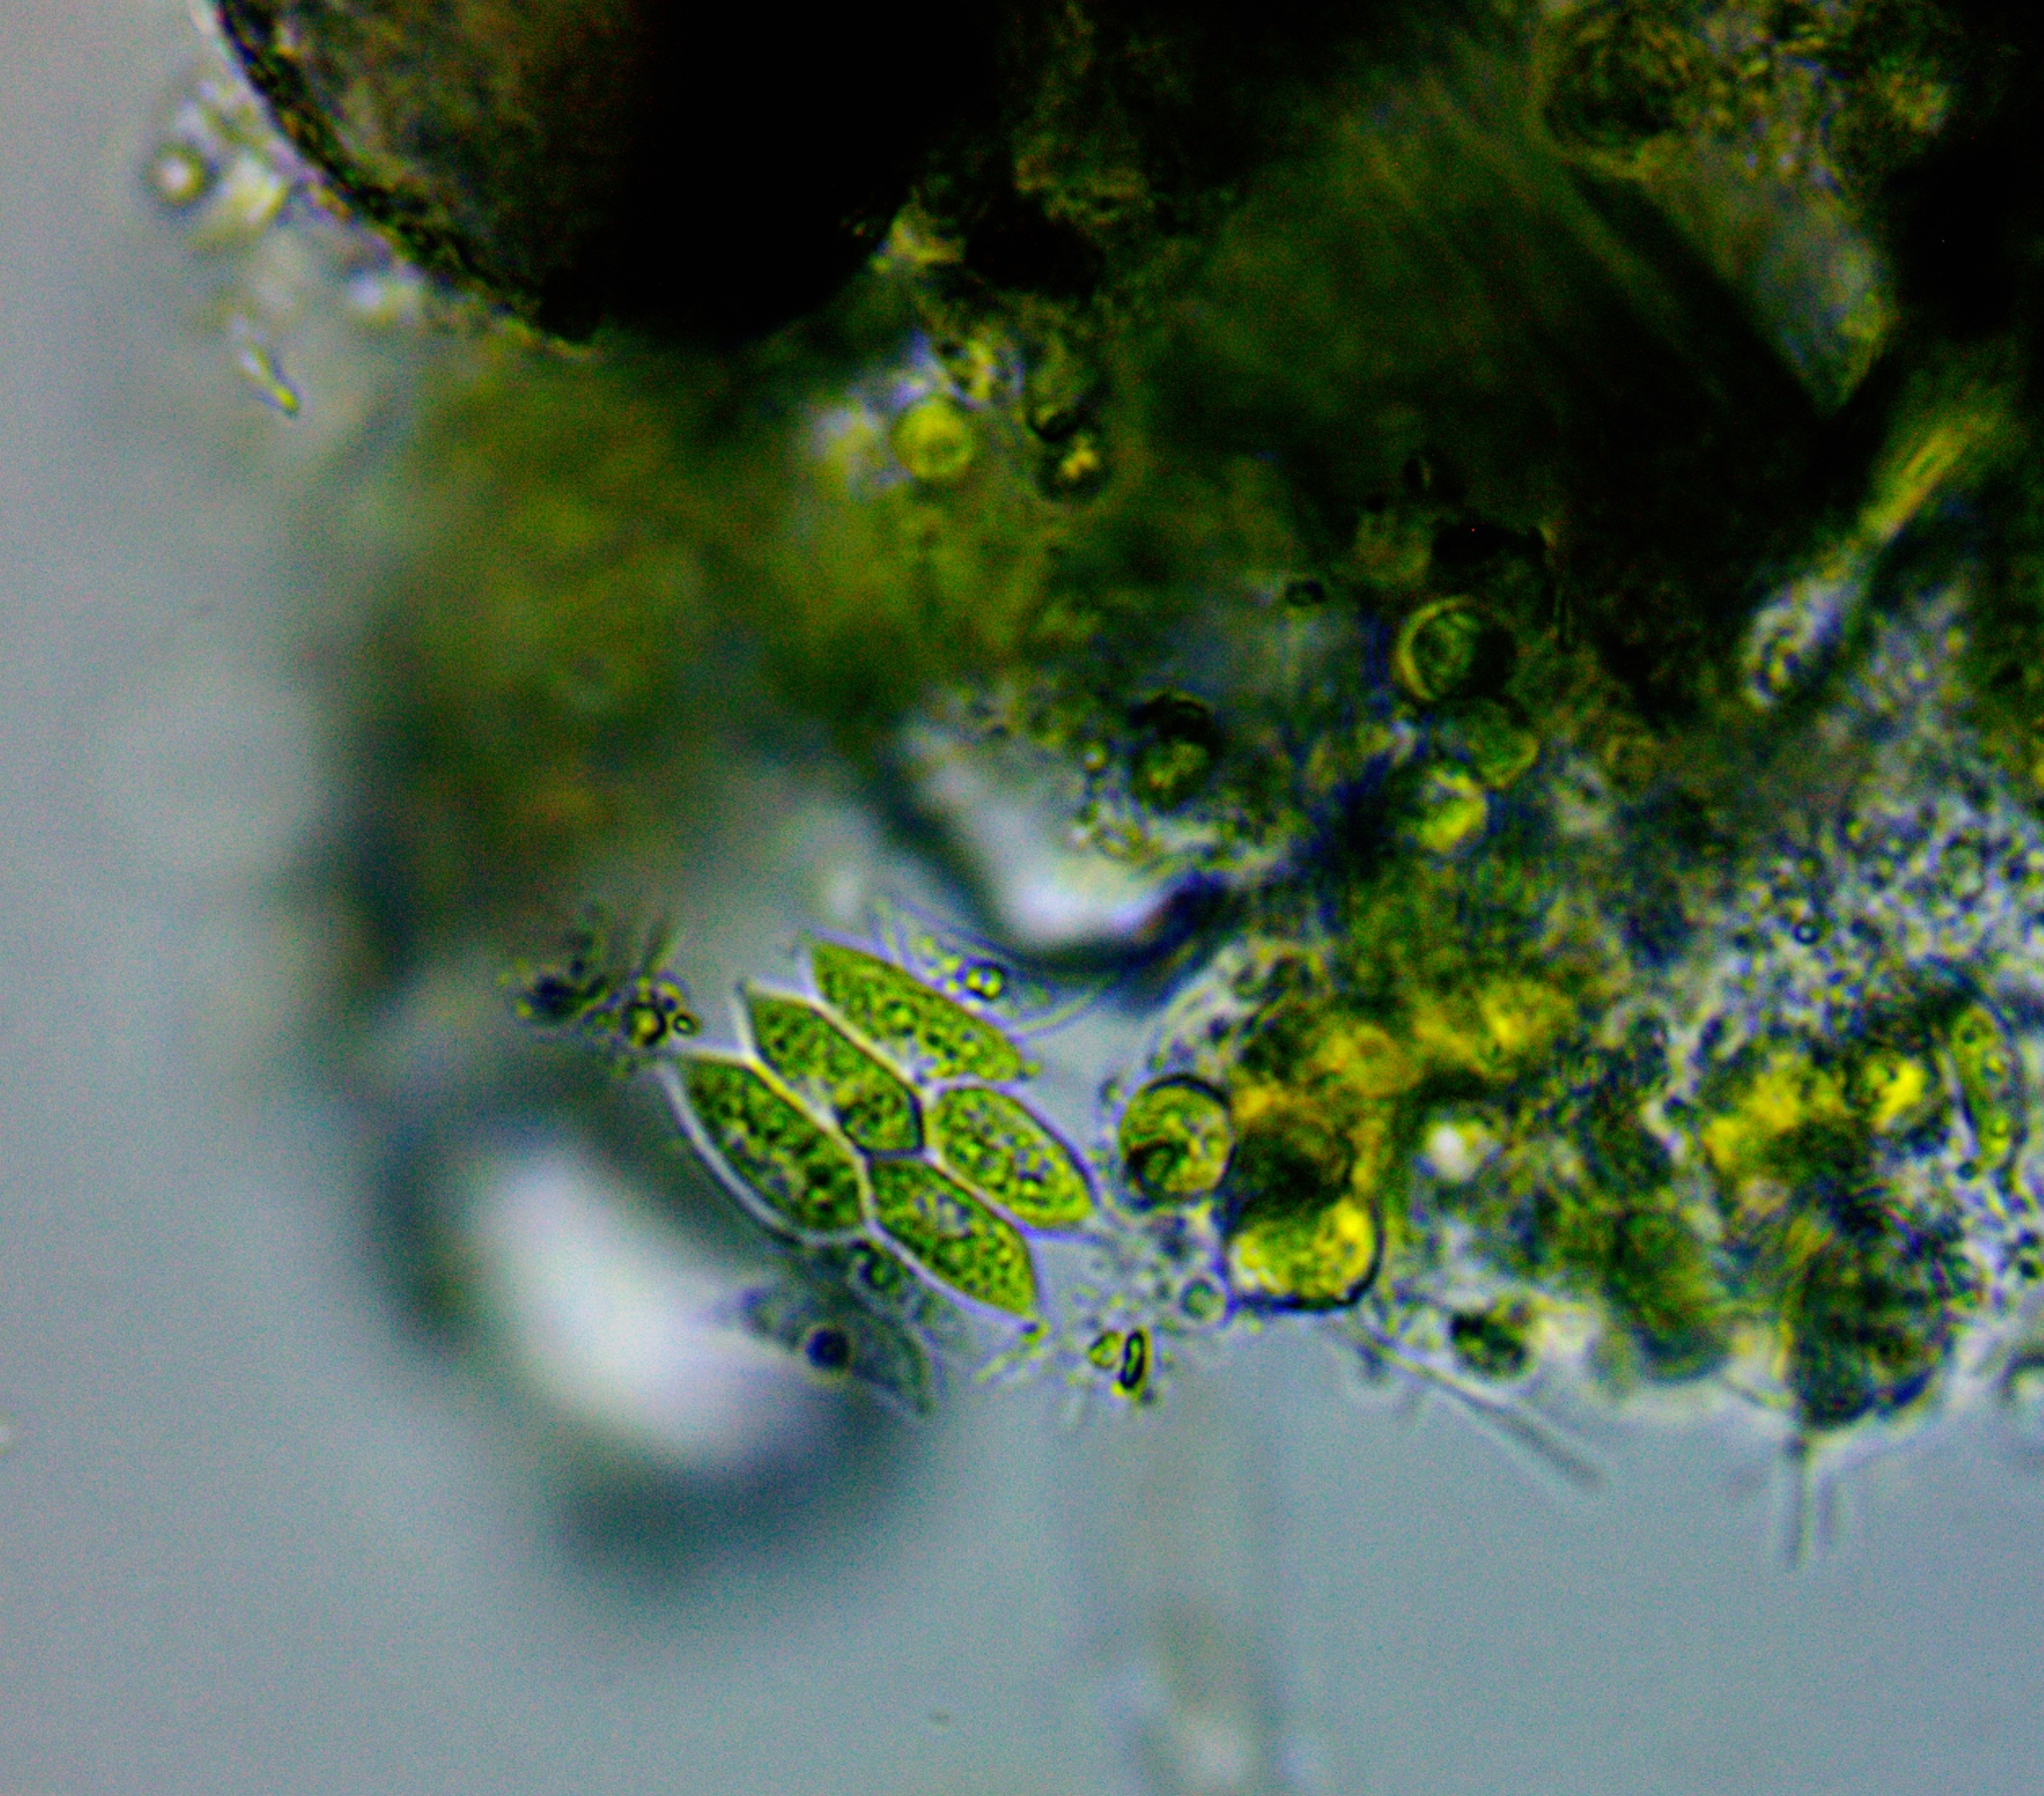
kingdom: Plantae
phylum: Chlorophyta
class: Chlorophyceae
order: Sphaeropleales
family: Scenedesmaceae
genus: Tetradesmus
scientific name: Tetradesmus obliquus
